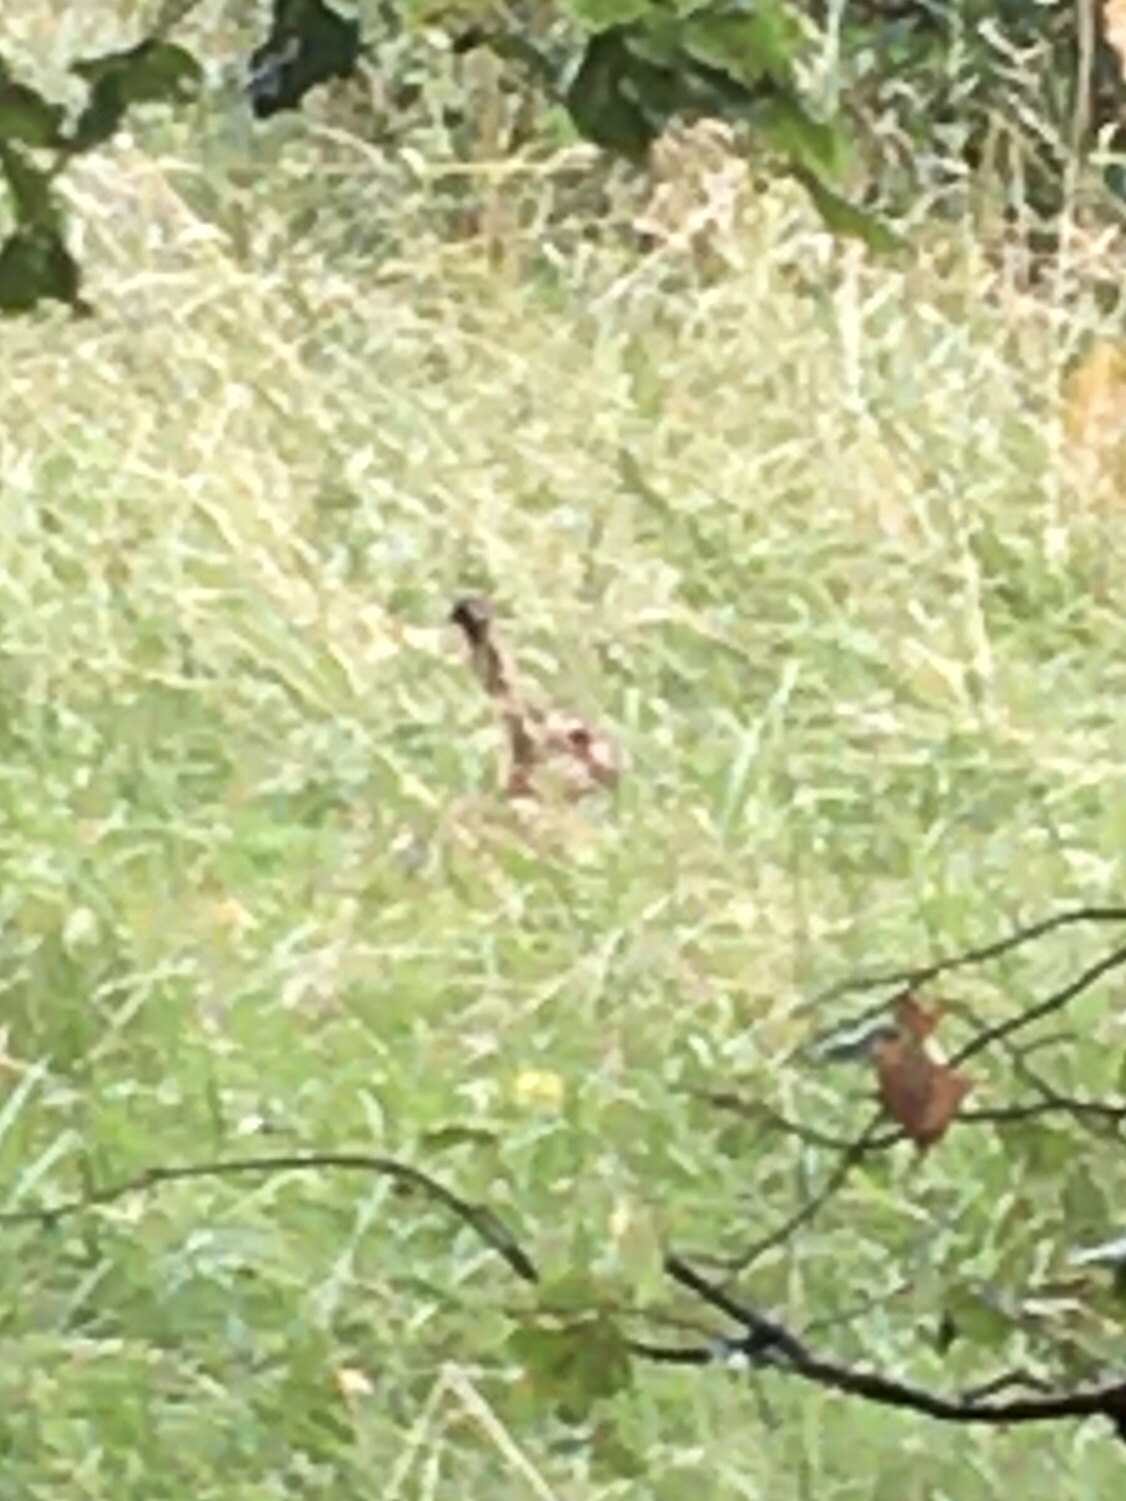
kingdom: Animalia
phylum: Chordata
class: Mammalia
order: Lagomorpha
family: Leporidae
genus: Lepus
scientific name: Lepus europaeus
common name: European hare
